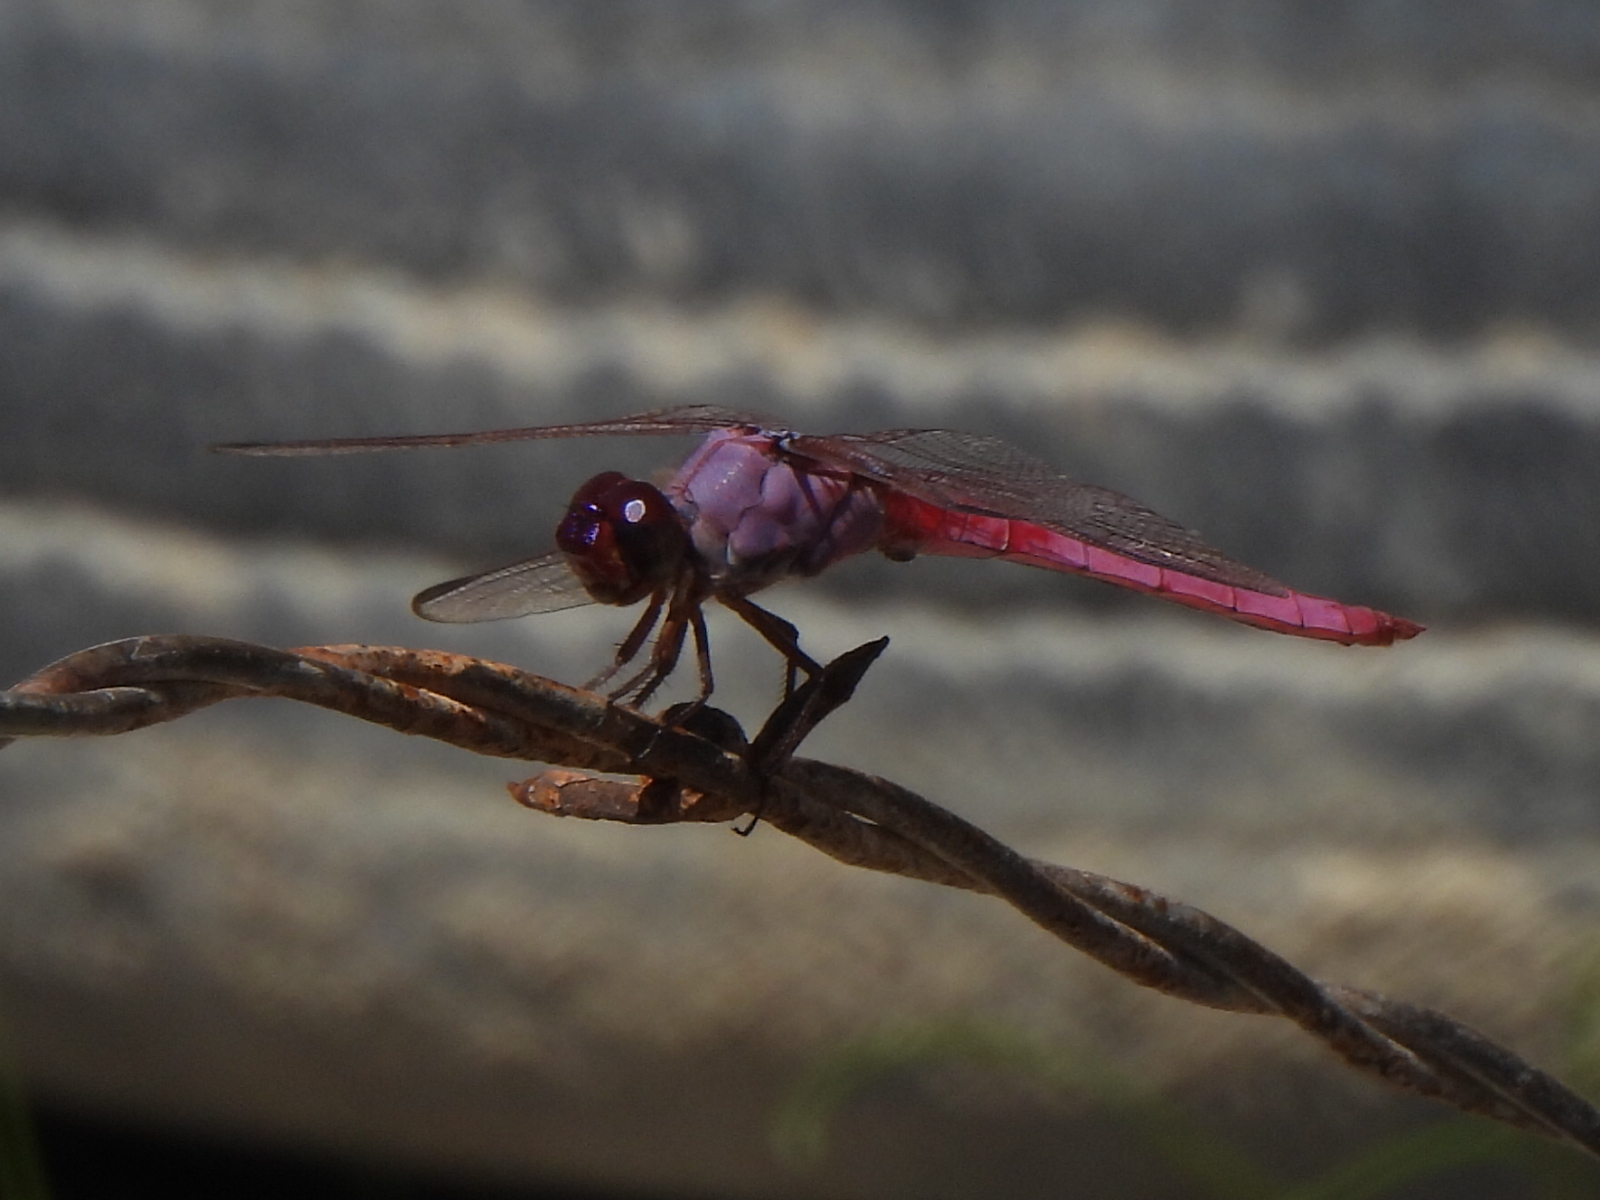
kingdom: Animalia
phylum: Arthropoda
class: Insecta
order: Odonata
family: Libellulidae
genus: Orthemis
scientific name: Orthemis ferruginea
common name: Roseate skimmer
